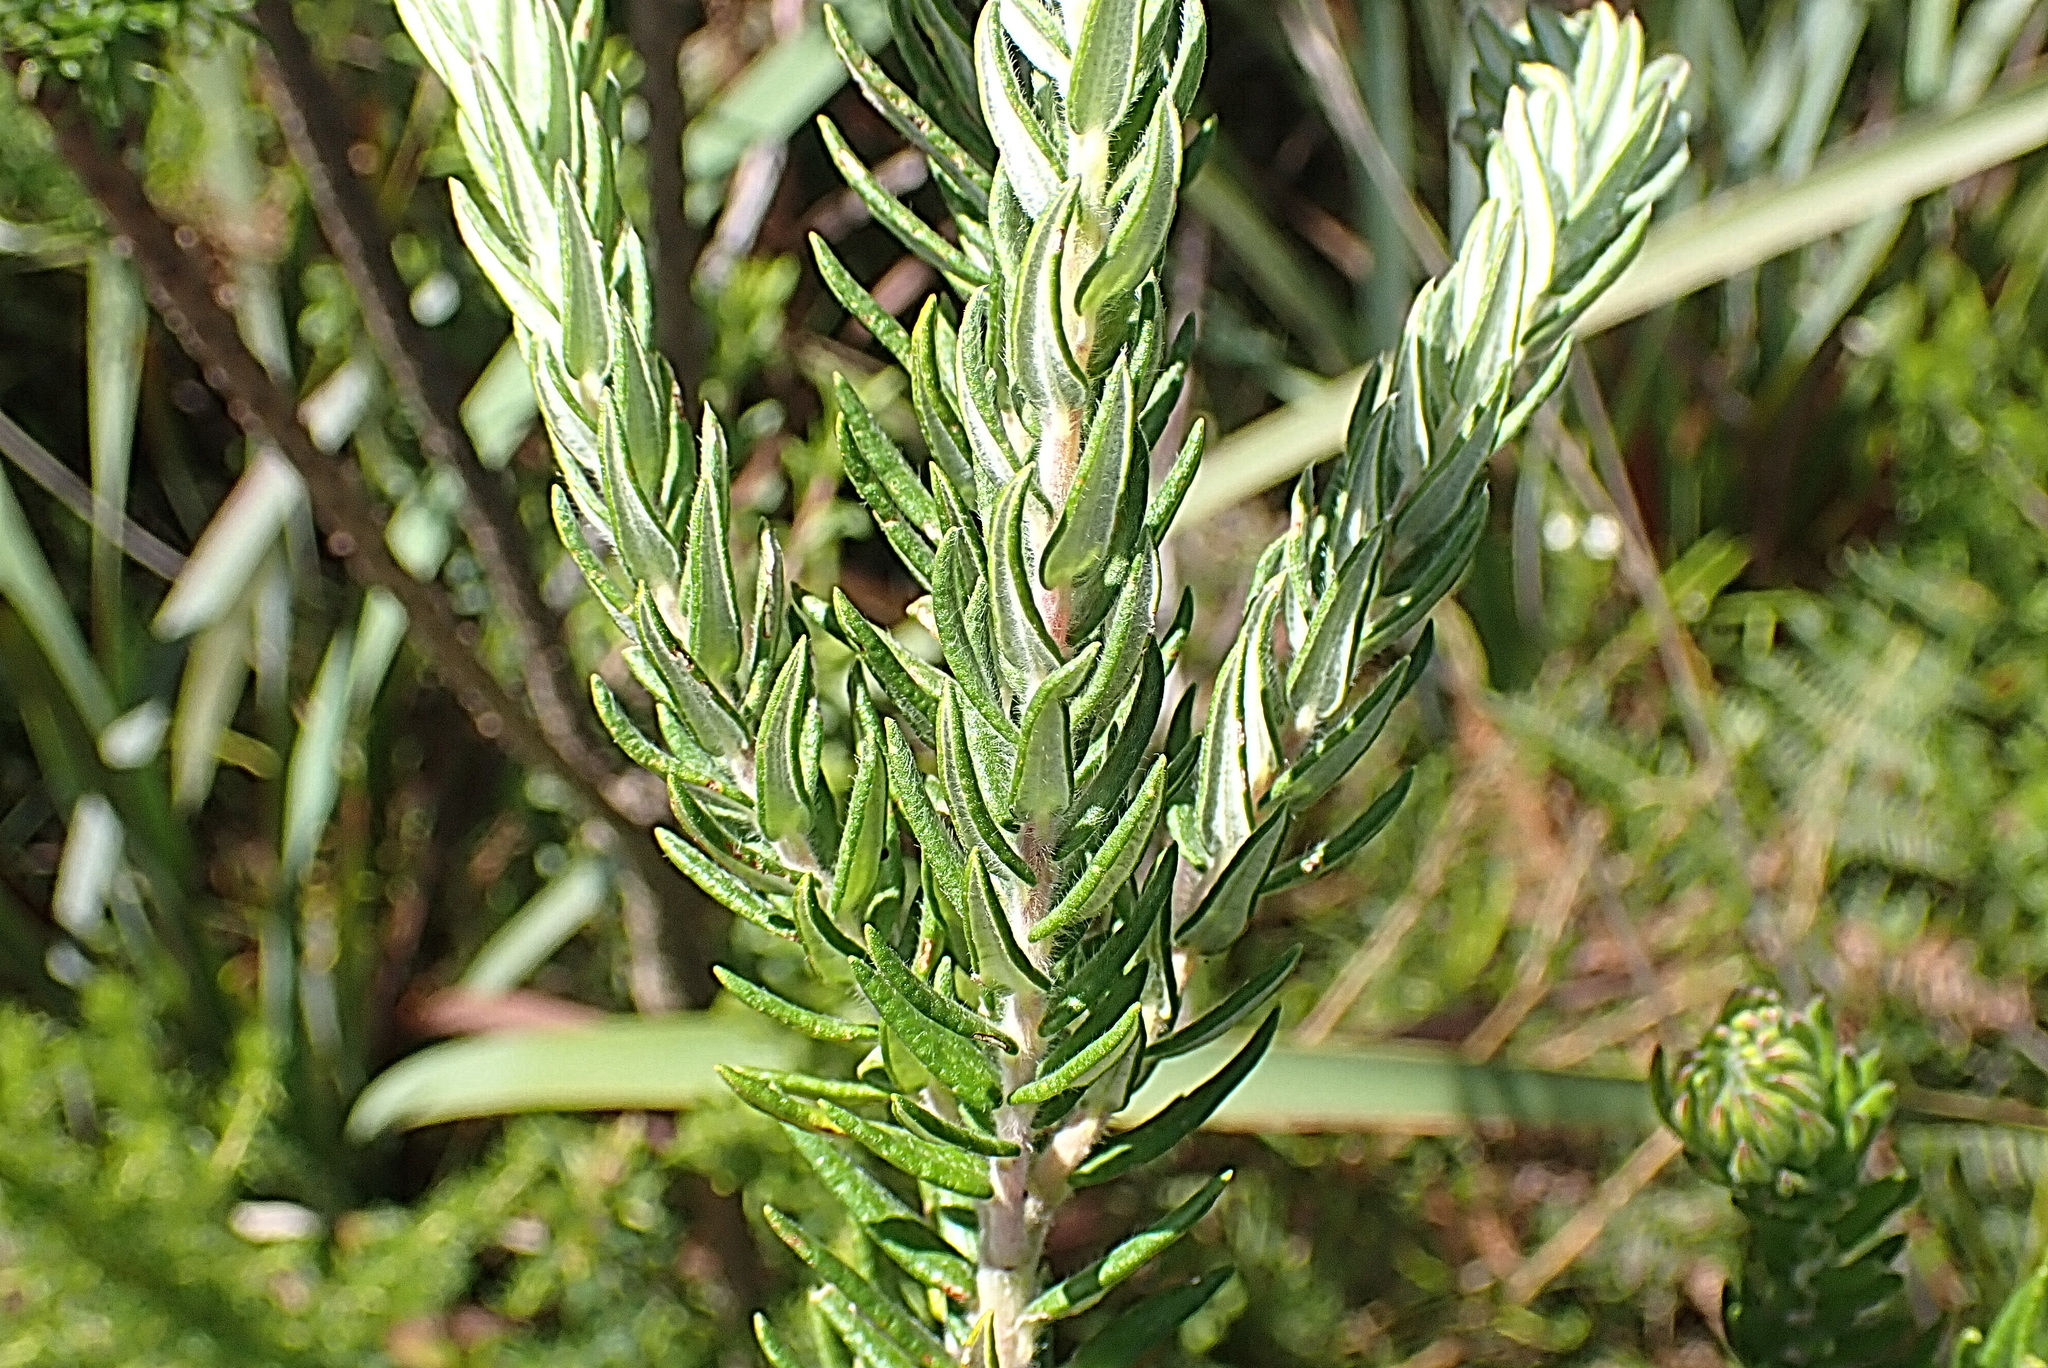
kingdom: Plantae
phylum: Tracheophyta
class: Magnoliopsida
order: Rosales
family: Rhamnaceae
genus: Phylica
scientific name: Phylica purpurea
